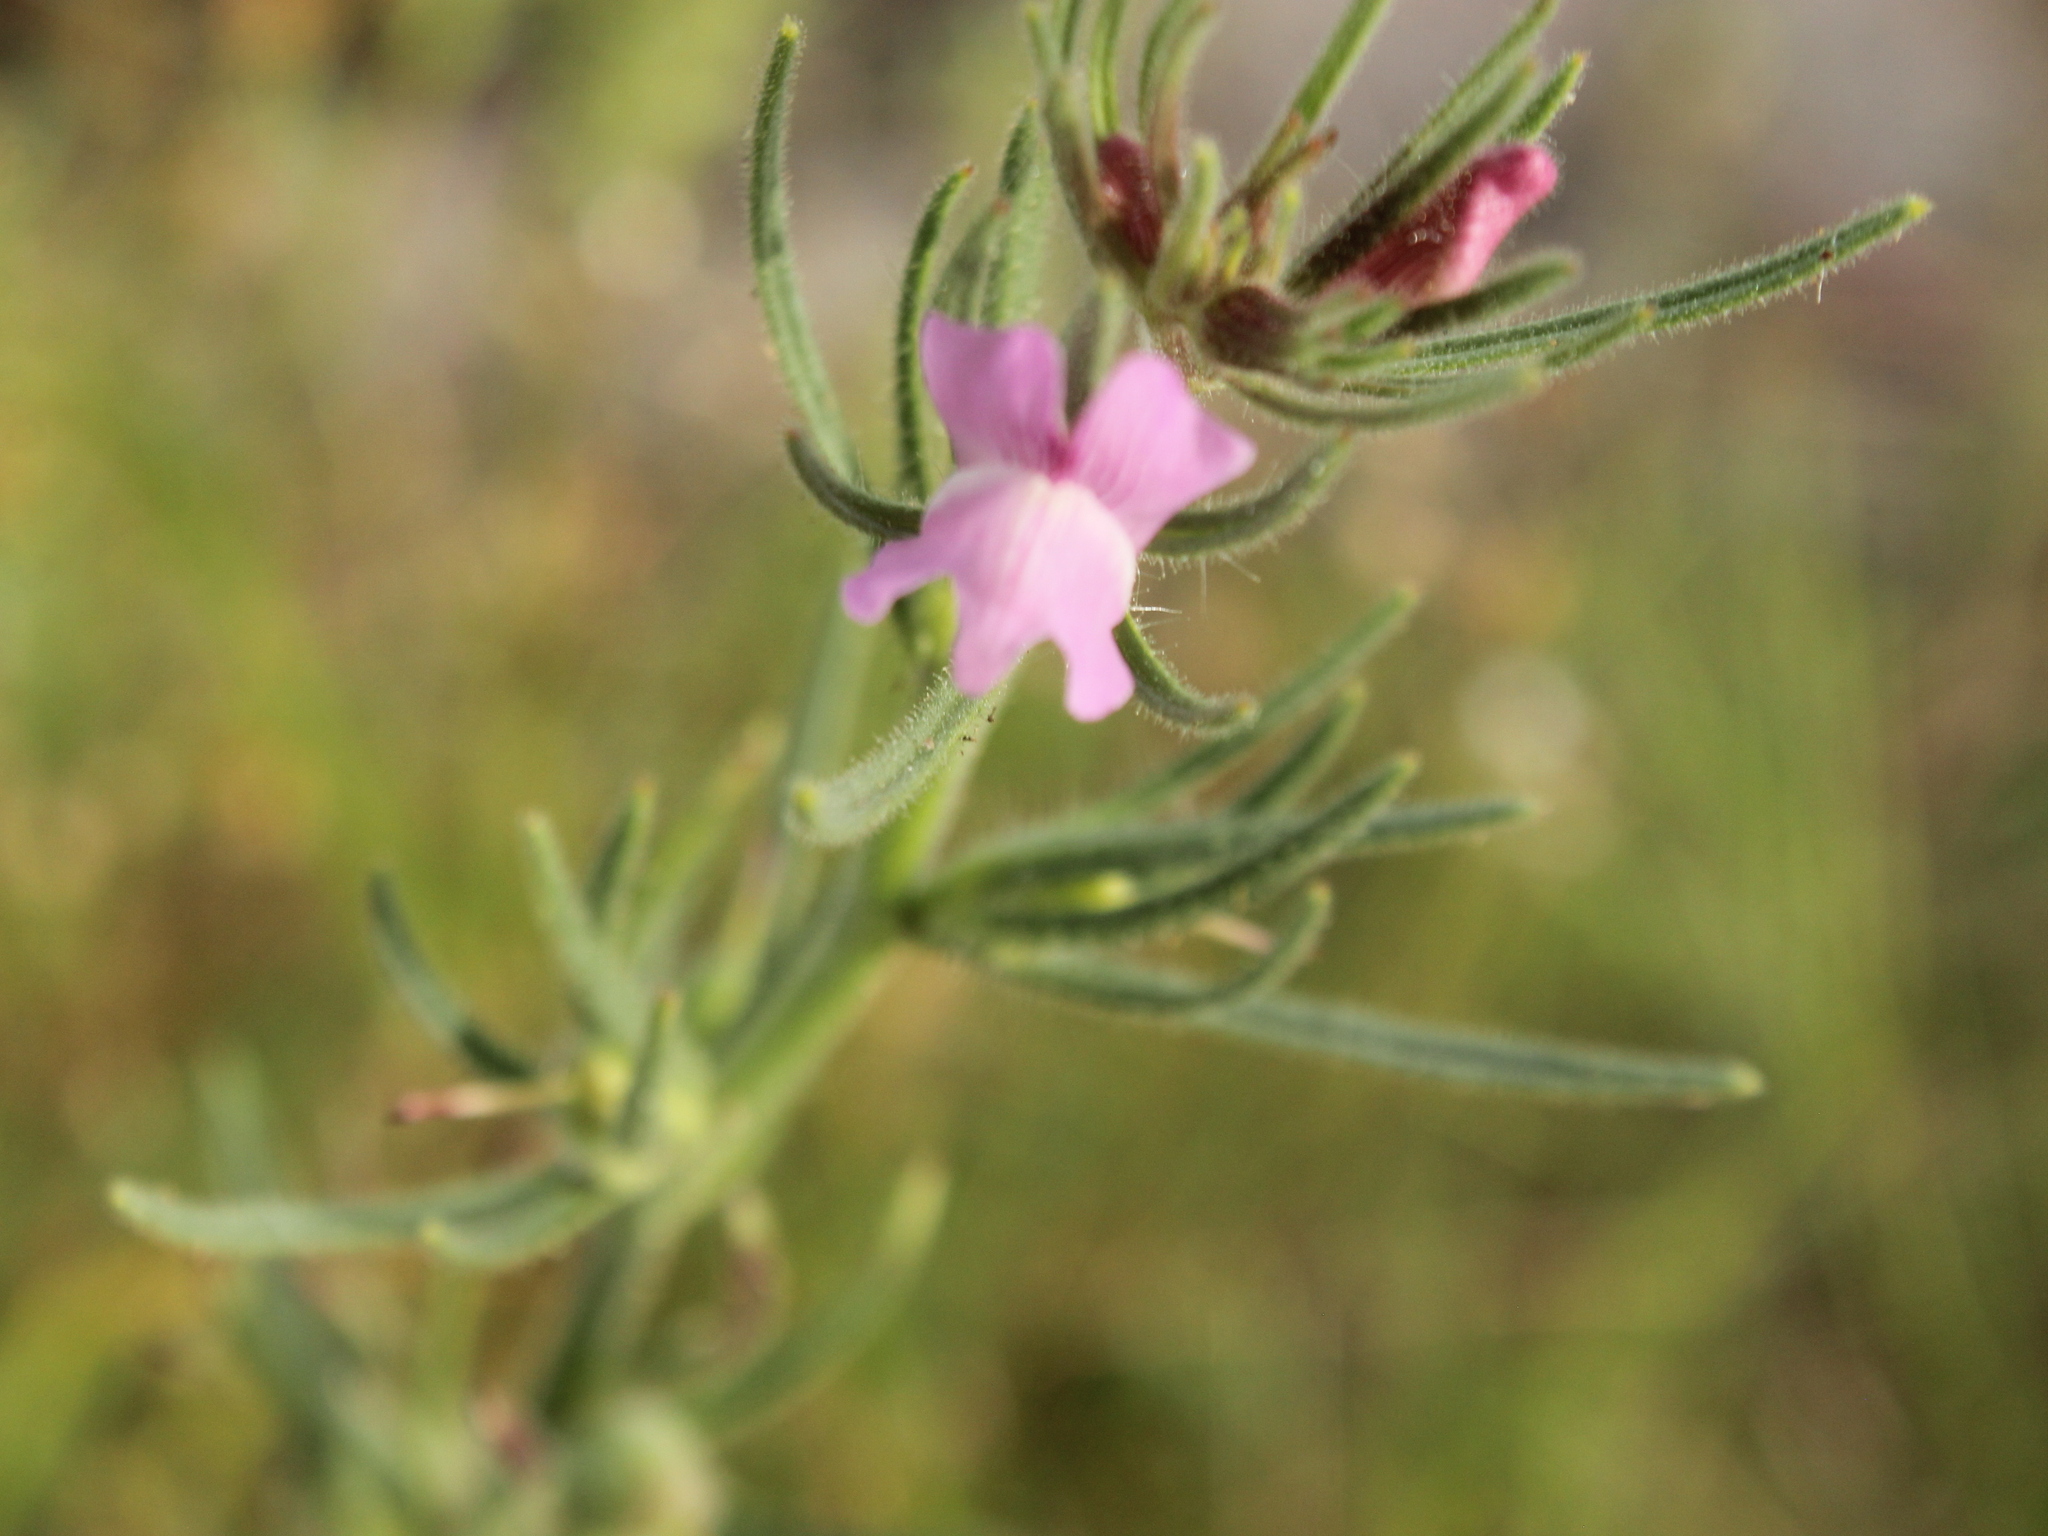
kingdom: Plantae
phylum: Tracheophyta
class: Magnoliopsida
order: Lamiales
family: Plantaginaceae
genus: Misopates
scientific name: Misopates orontium
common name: Weasel's-snout
